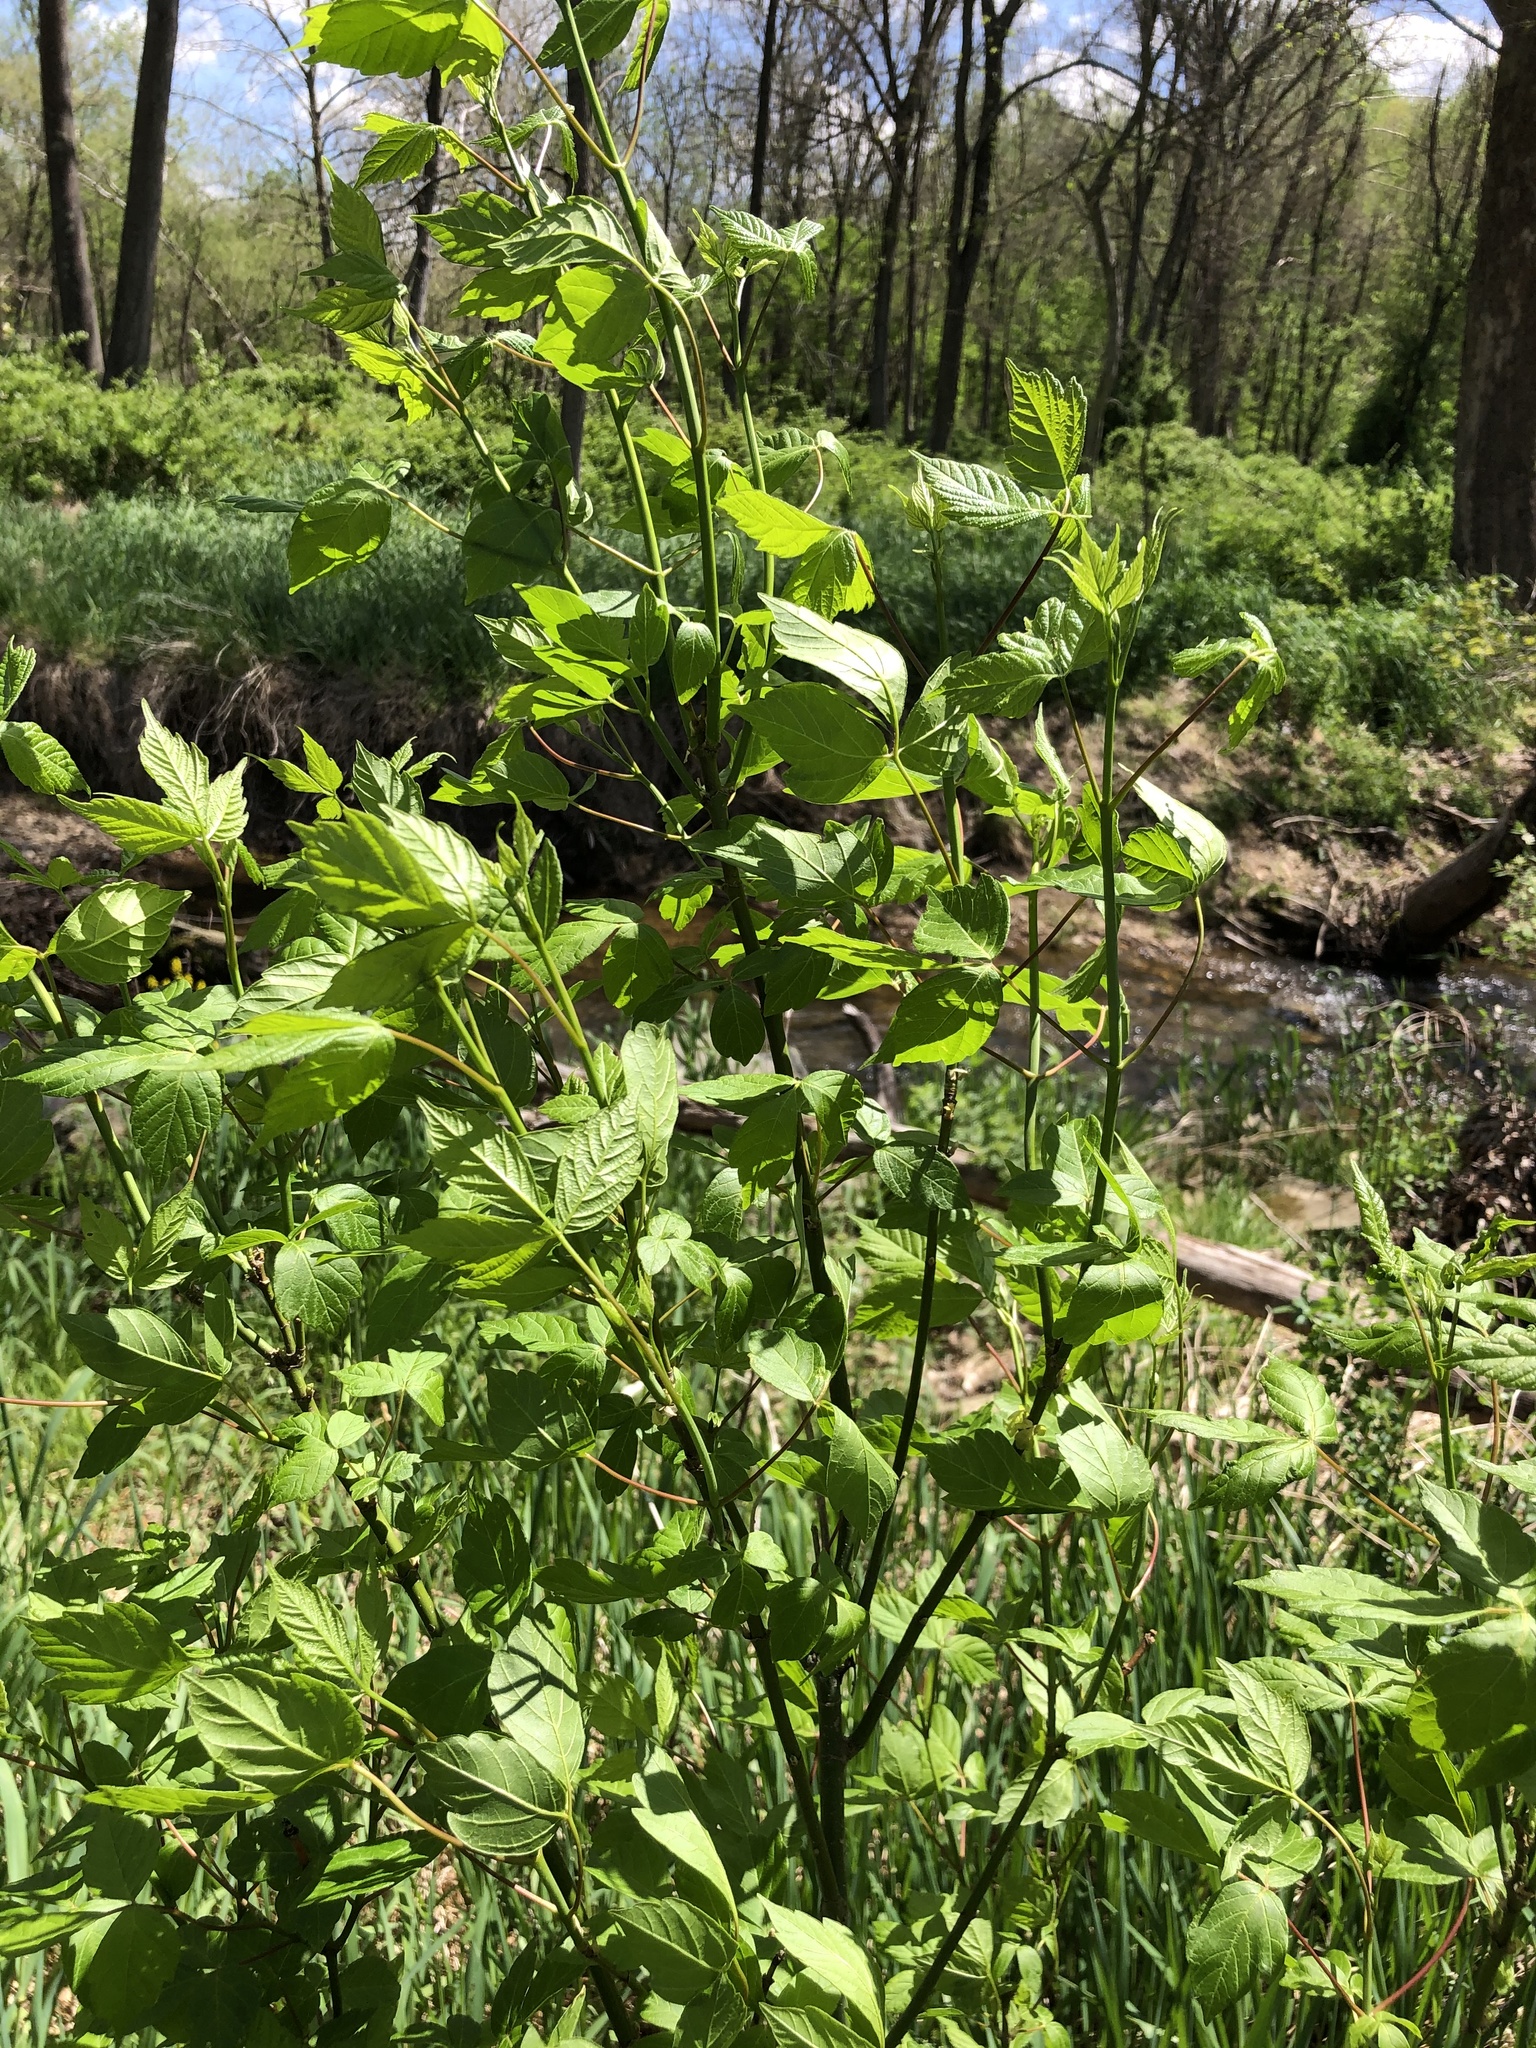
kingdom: Plantae
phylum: Tracheophyta
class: Magnoliopsida
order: Sapindales
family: Sapindaceae
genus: Acer
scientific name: Acer negundo
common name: Ashleaf maple
